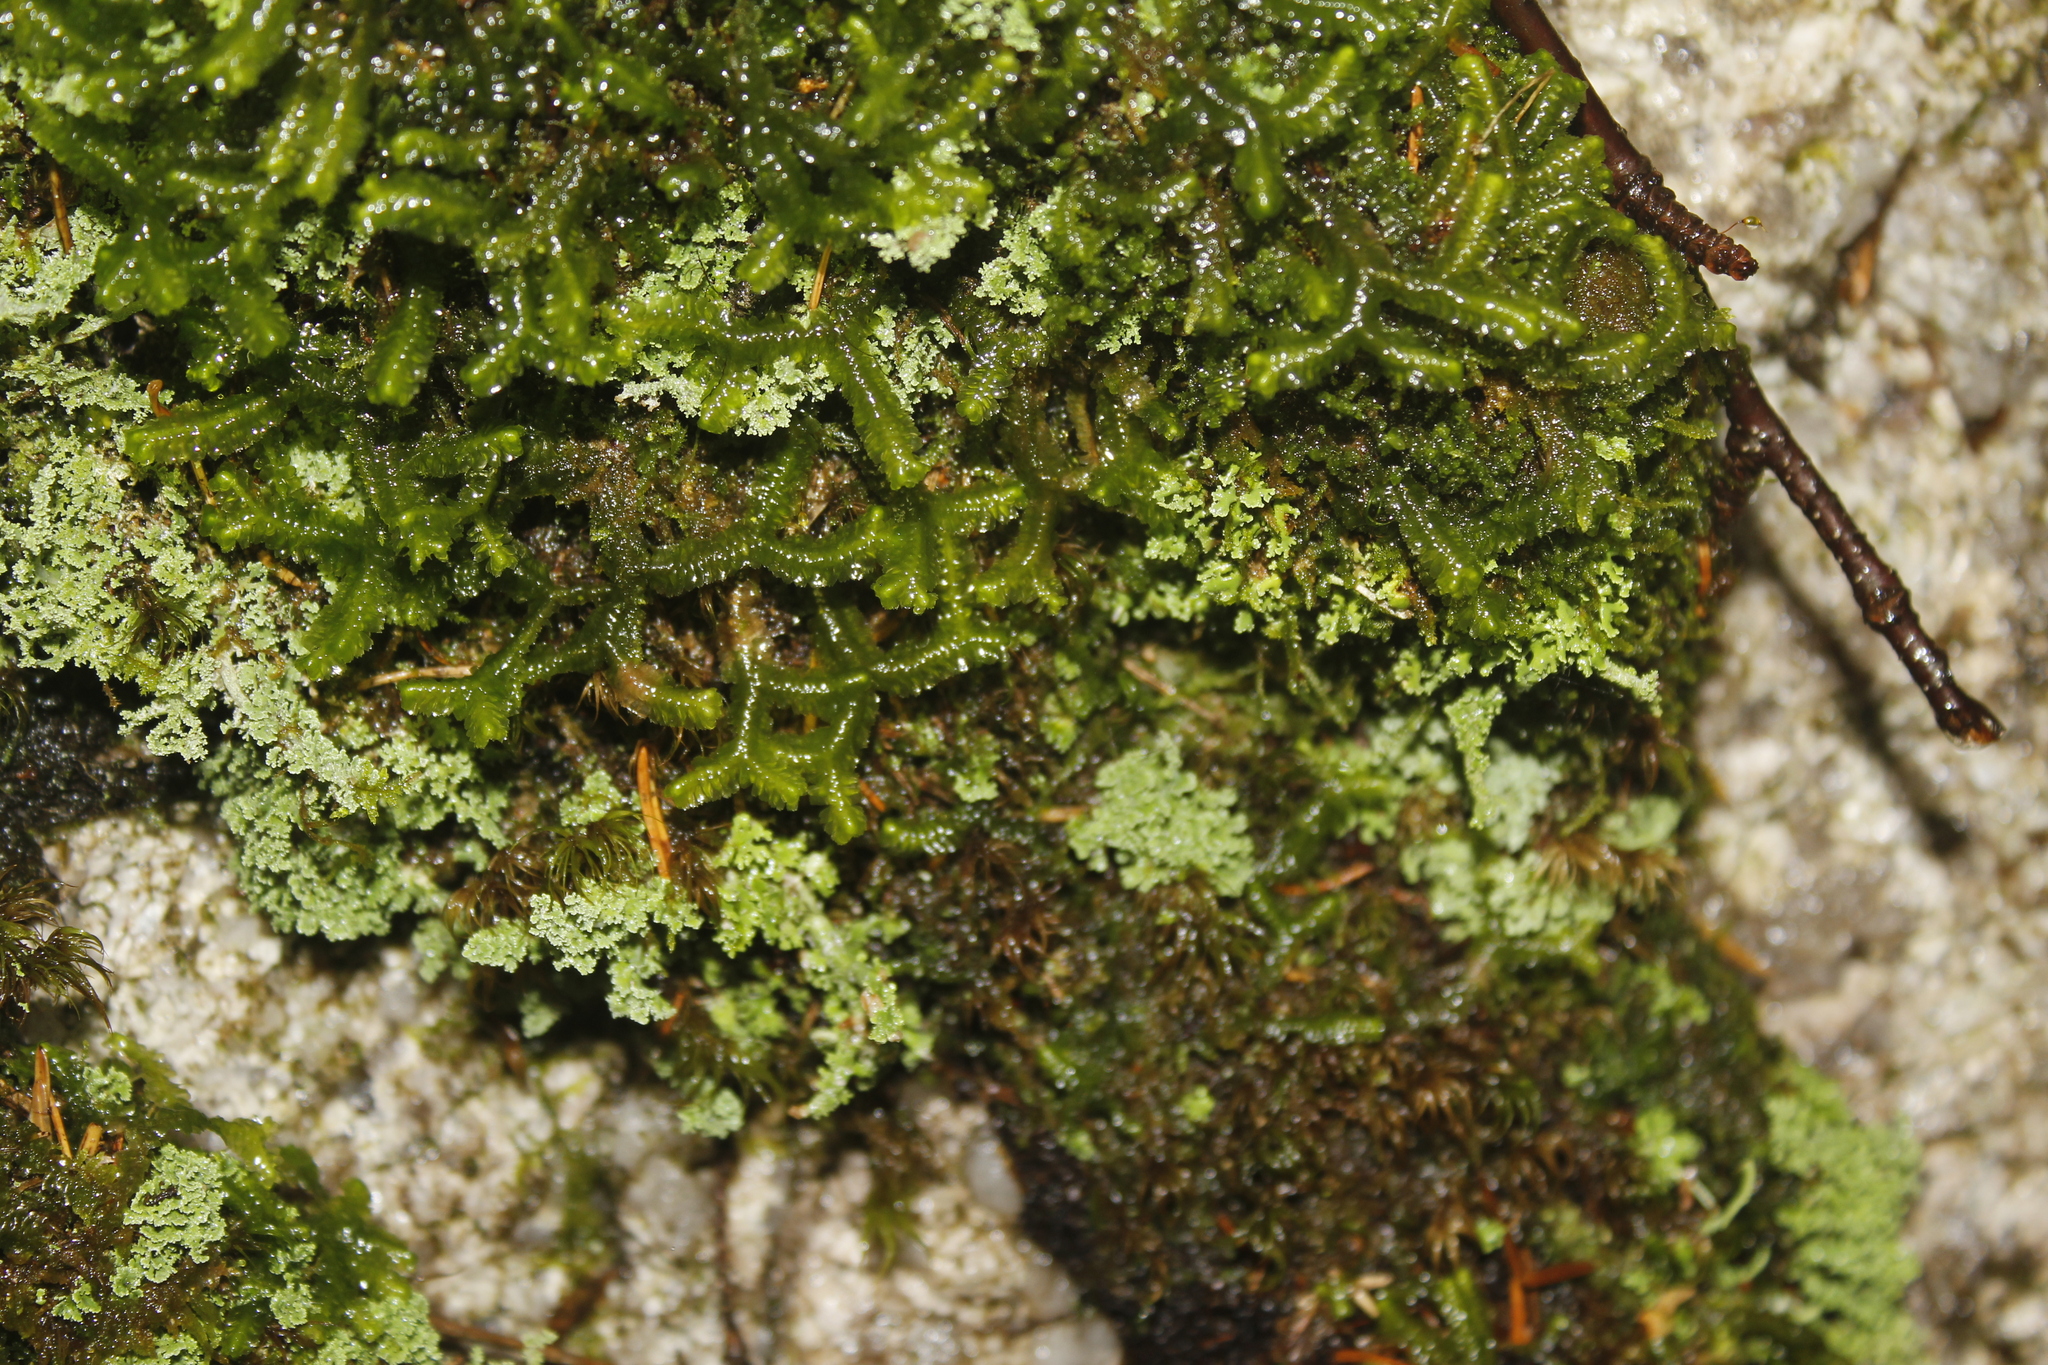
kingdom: Plantae
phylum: Marchantiophyta
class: Jungermanniopsida
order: Jungermanniales
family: Lepidoziaceae
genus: Bazzania
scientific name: Bazzania trilobata
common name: Three-lobed whipwort
